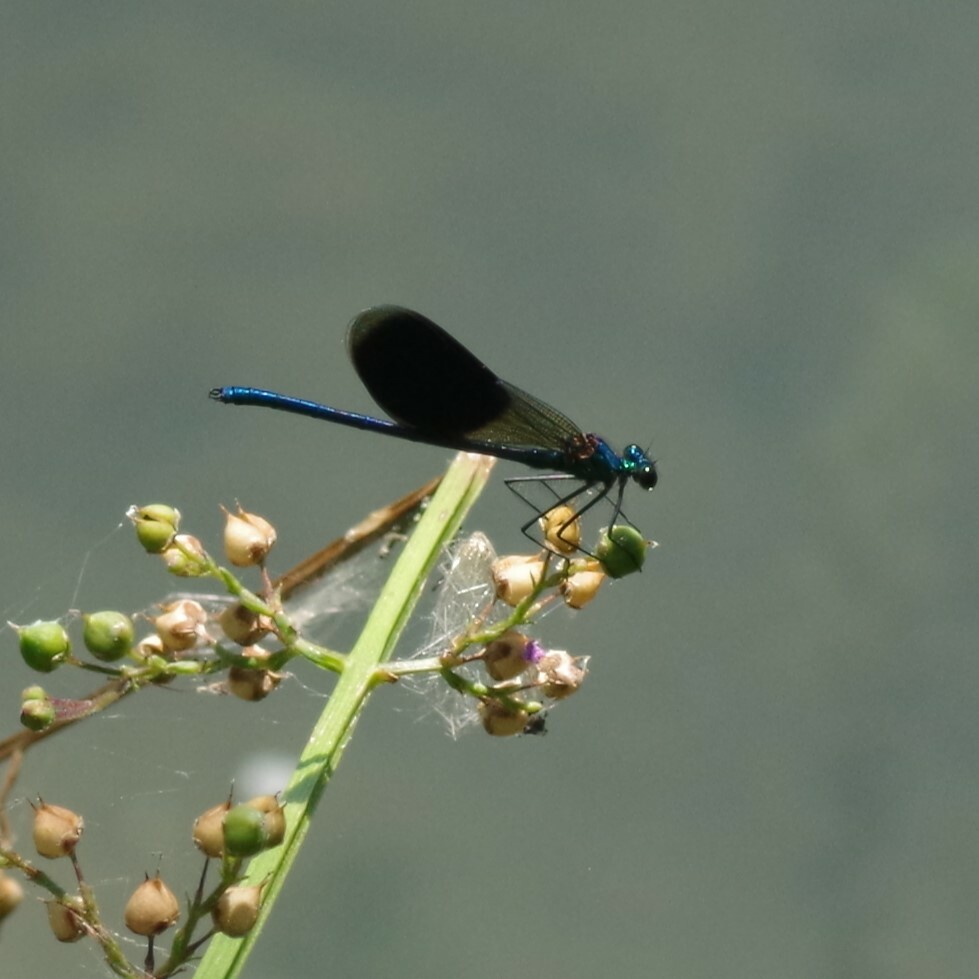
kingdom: Animalia
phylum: Arthropoda
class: Insecta
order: Odonata
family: Calopterygidae
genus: Calopteryx
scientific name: Calopteryx splendens
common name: Banded demoiselle
